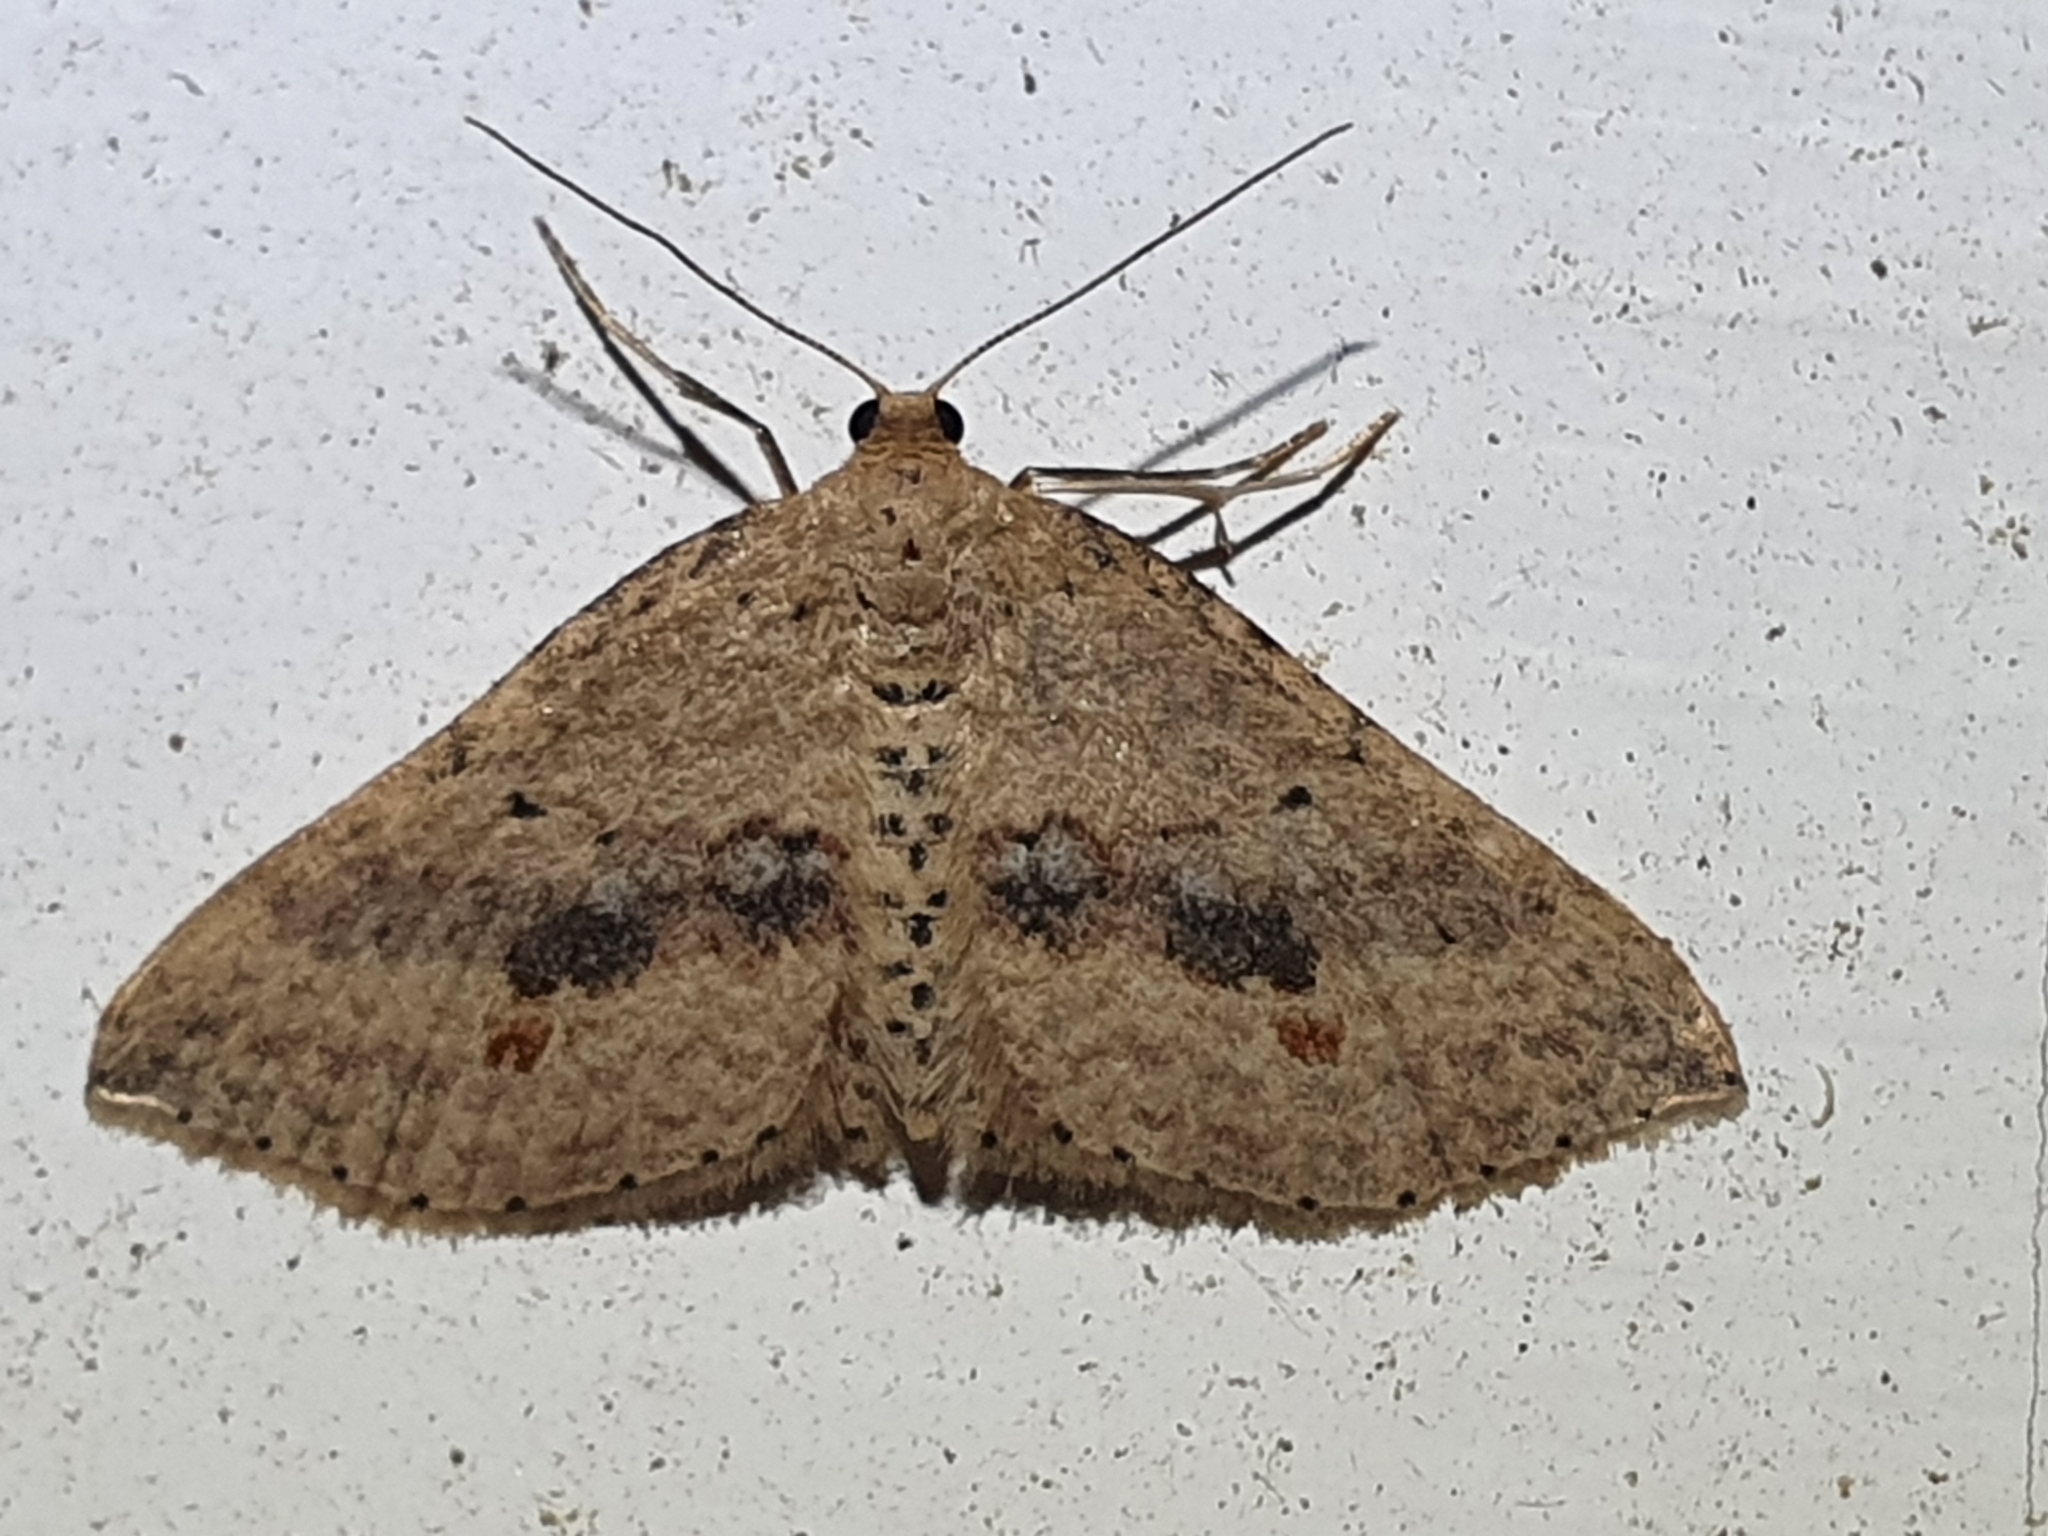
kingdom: Animalia
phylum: Arthropoda
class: Insecta
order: Lepidoptera
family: Geometridae
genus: Epicyme
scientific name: Epicyme rubropunctaria
